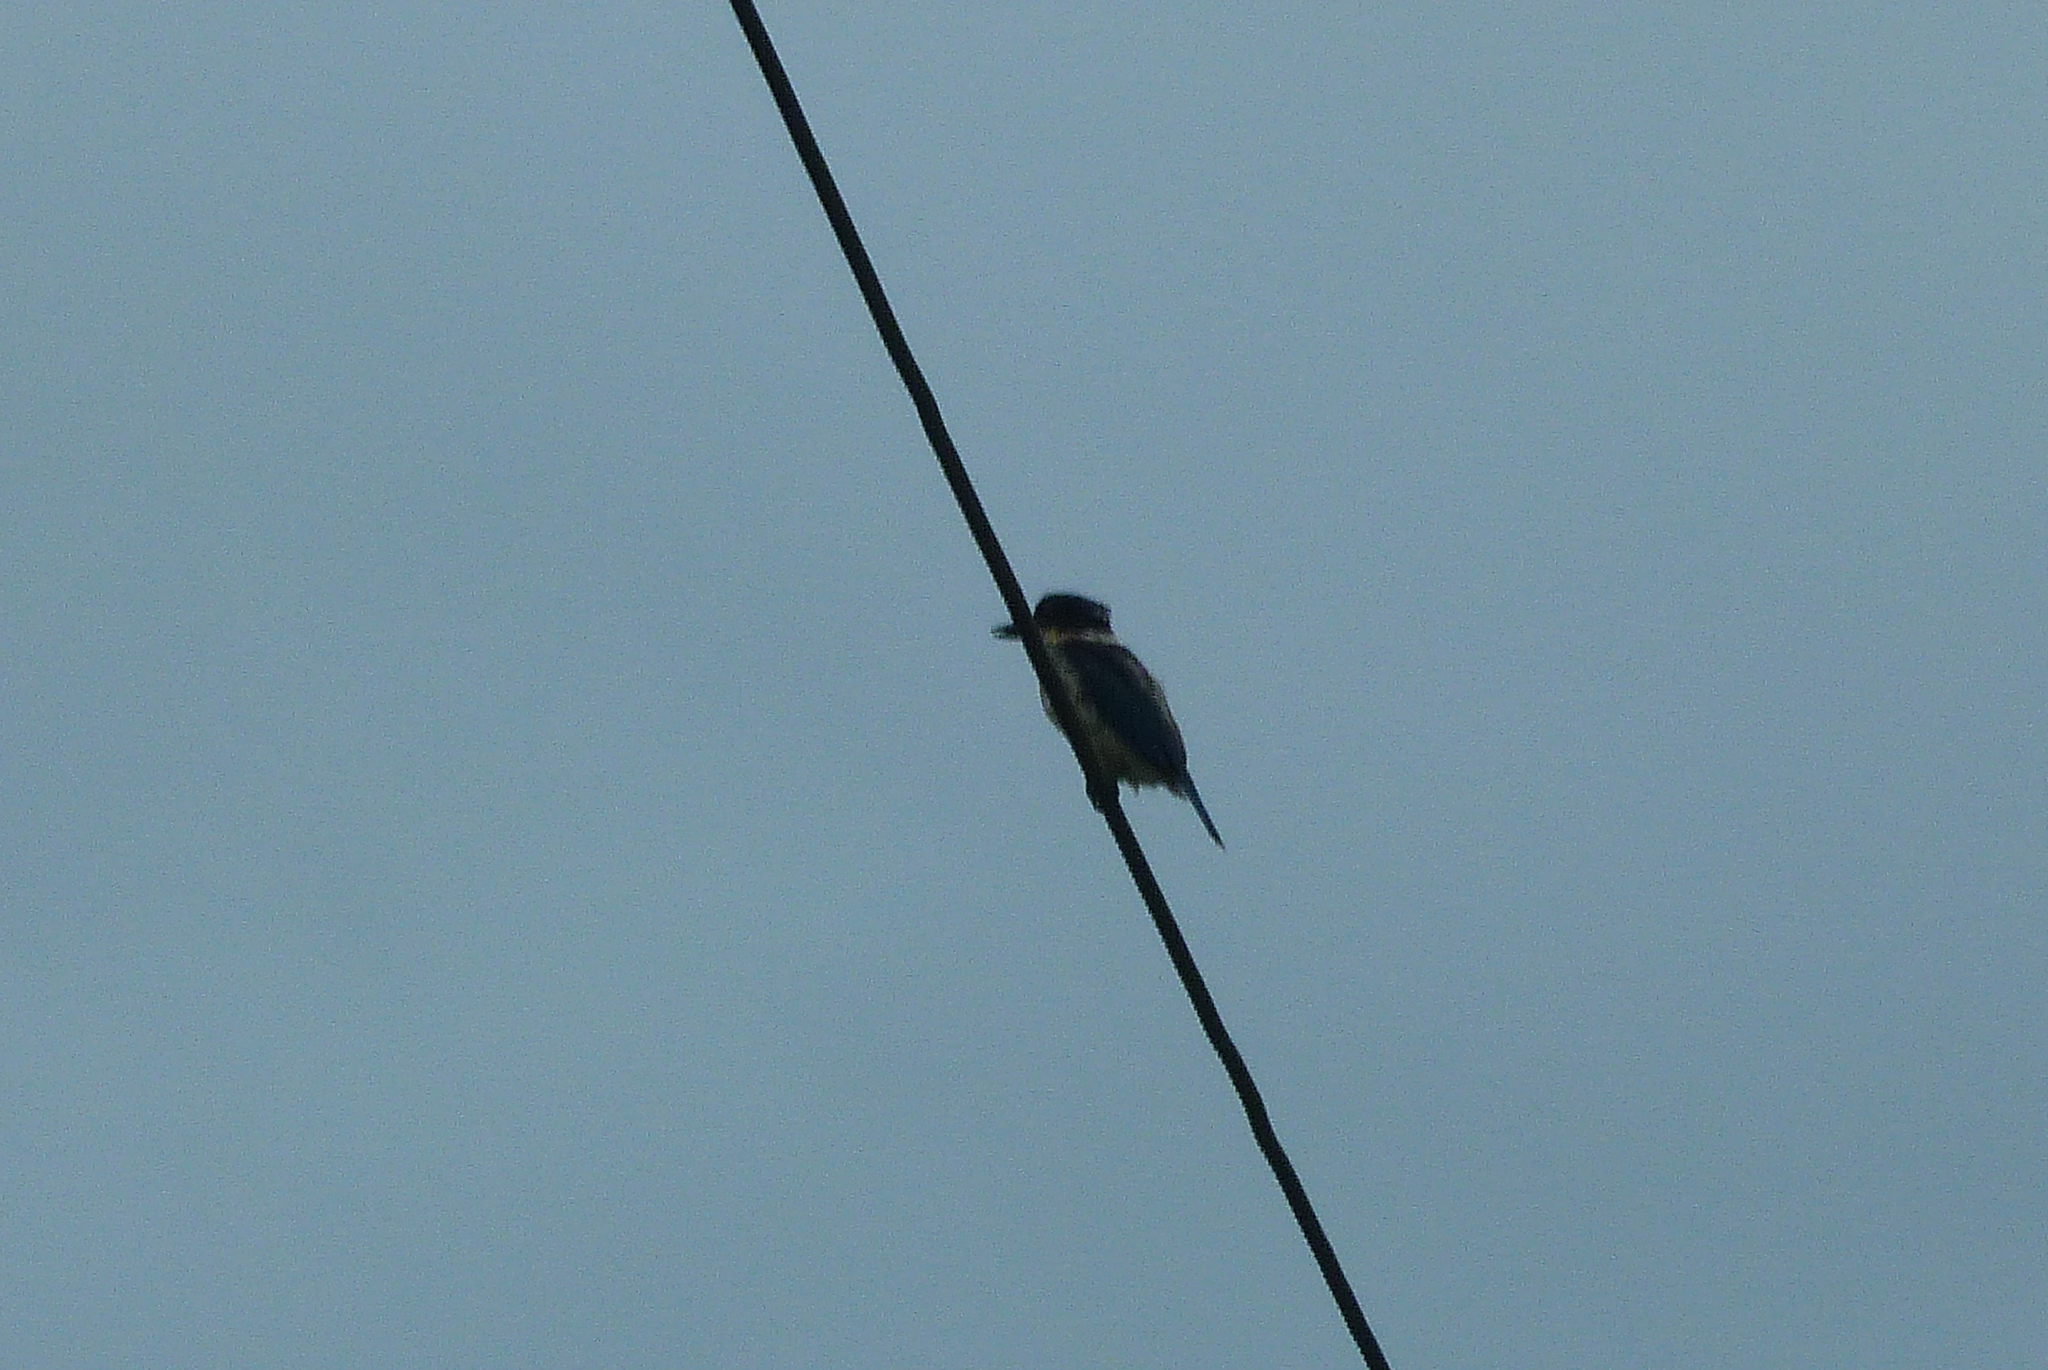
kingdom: Animalia
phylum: Chordata
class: Aves
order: Coraciiformes
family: Alcedinidae
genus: Todiramphus
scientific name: Todiramphus sanctus
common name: Sacred kingfisher
